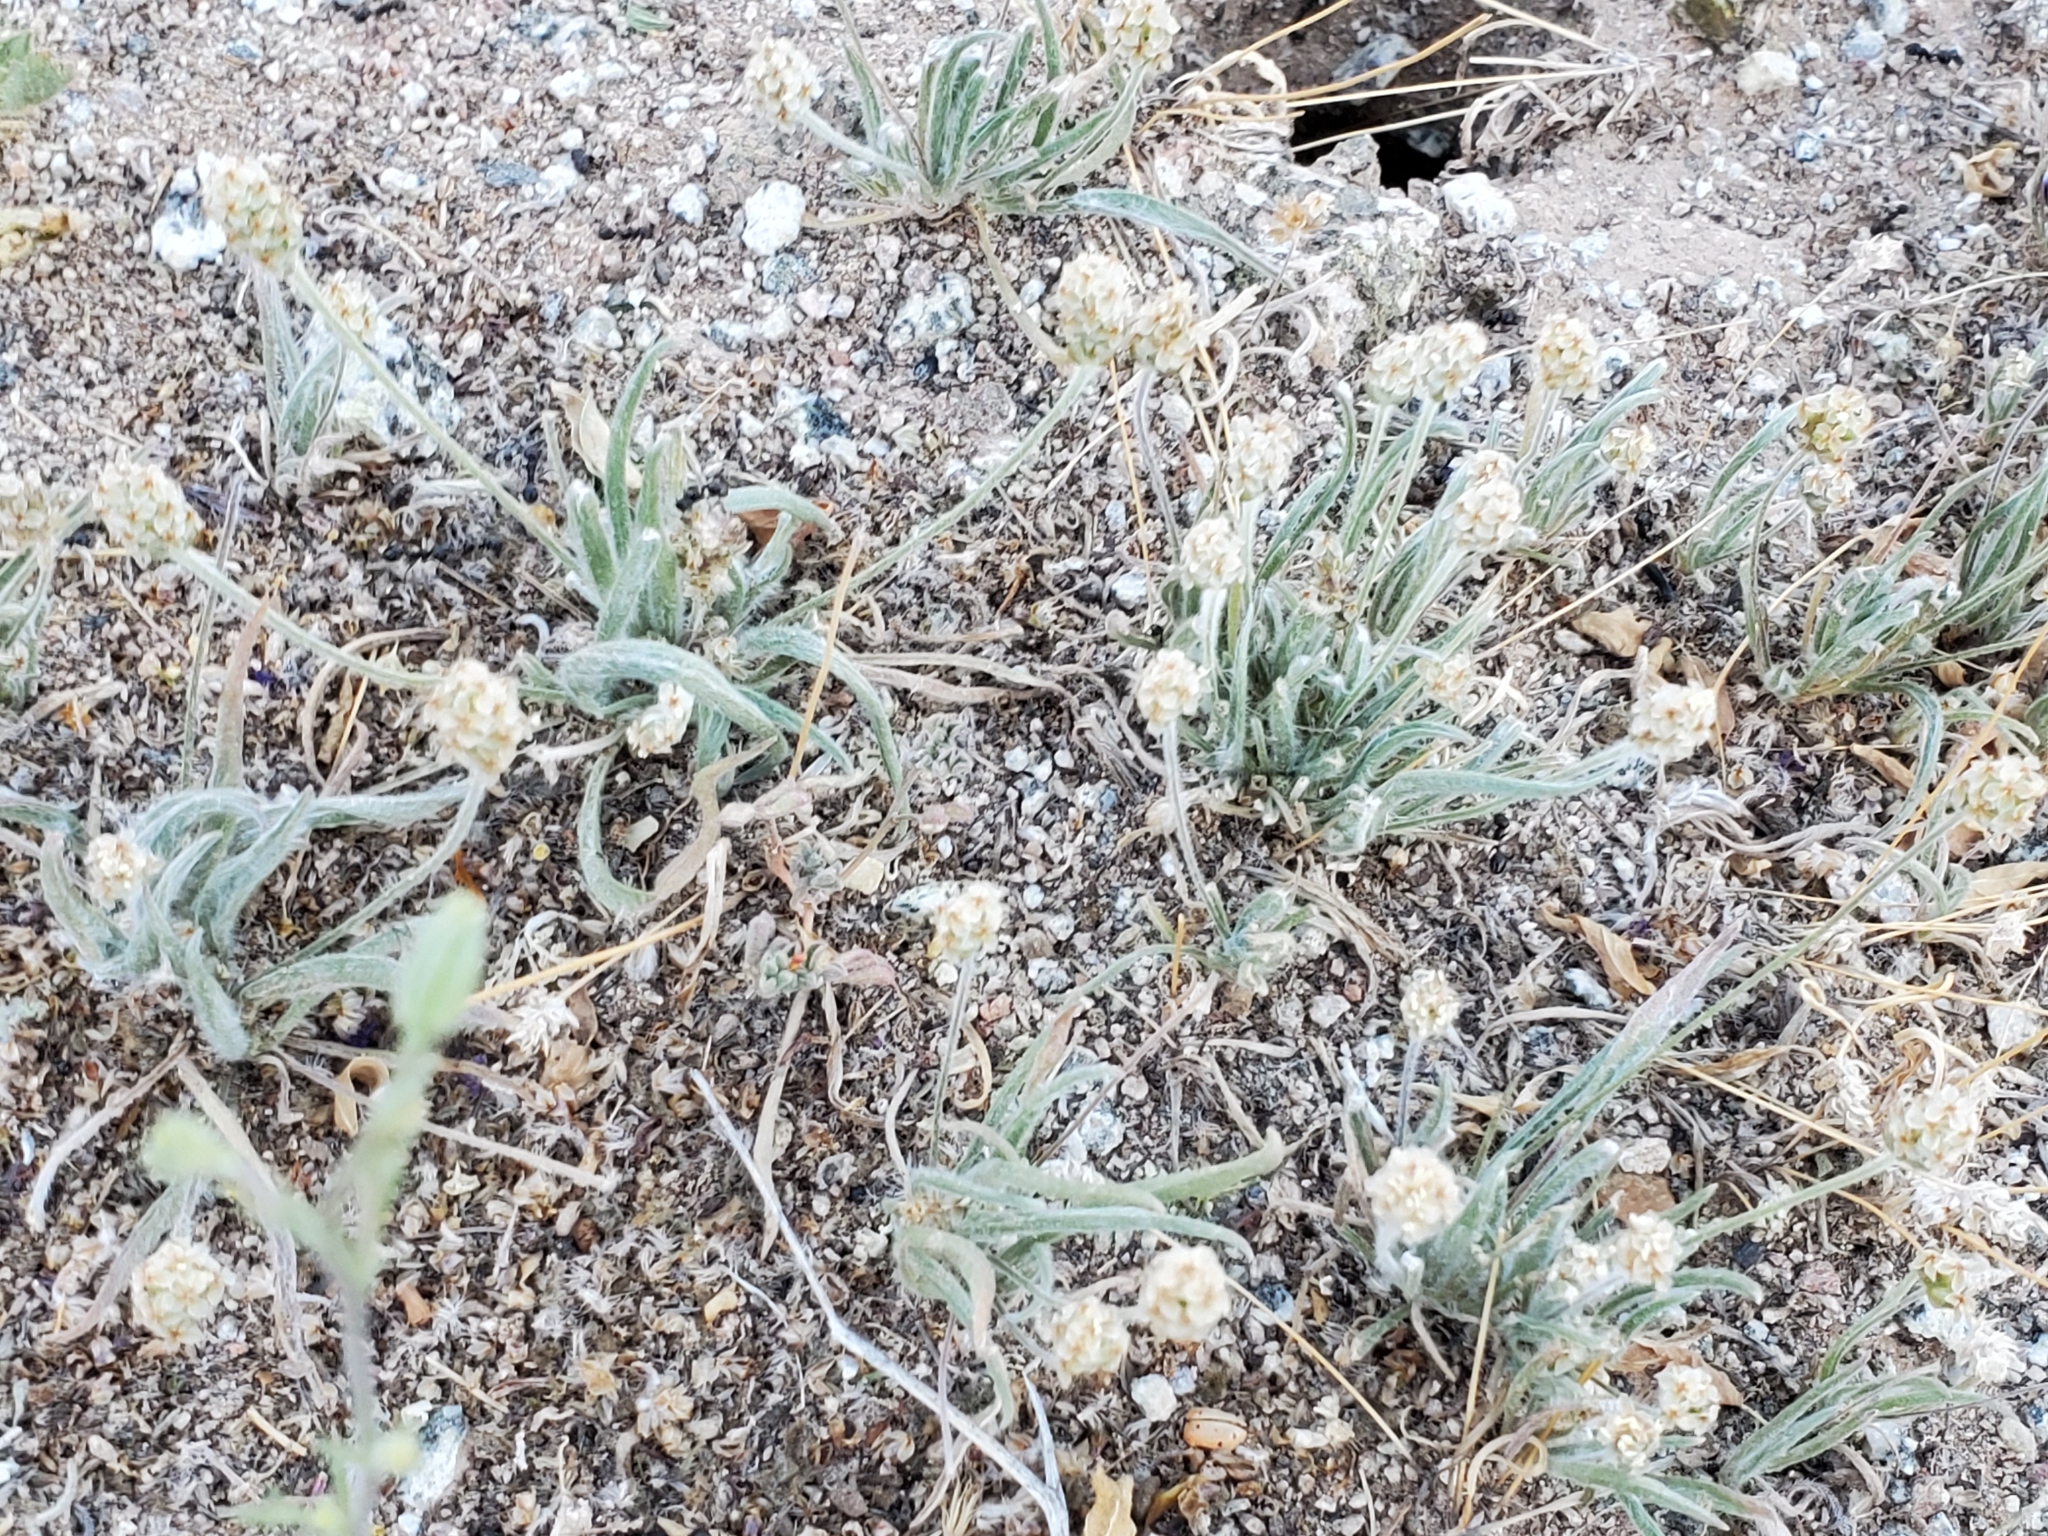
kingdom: Plantae
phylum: Tracheophyta
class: Magnoliopsida
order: Lamiales
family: Plantaginaceae
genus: Plantago
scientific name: Plantago ovata
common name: Blond plantain
